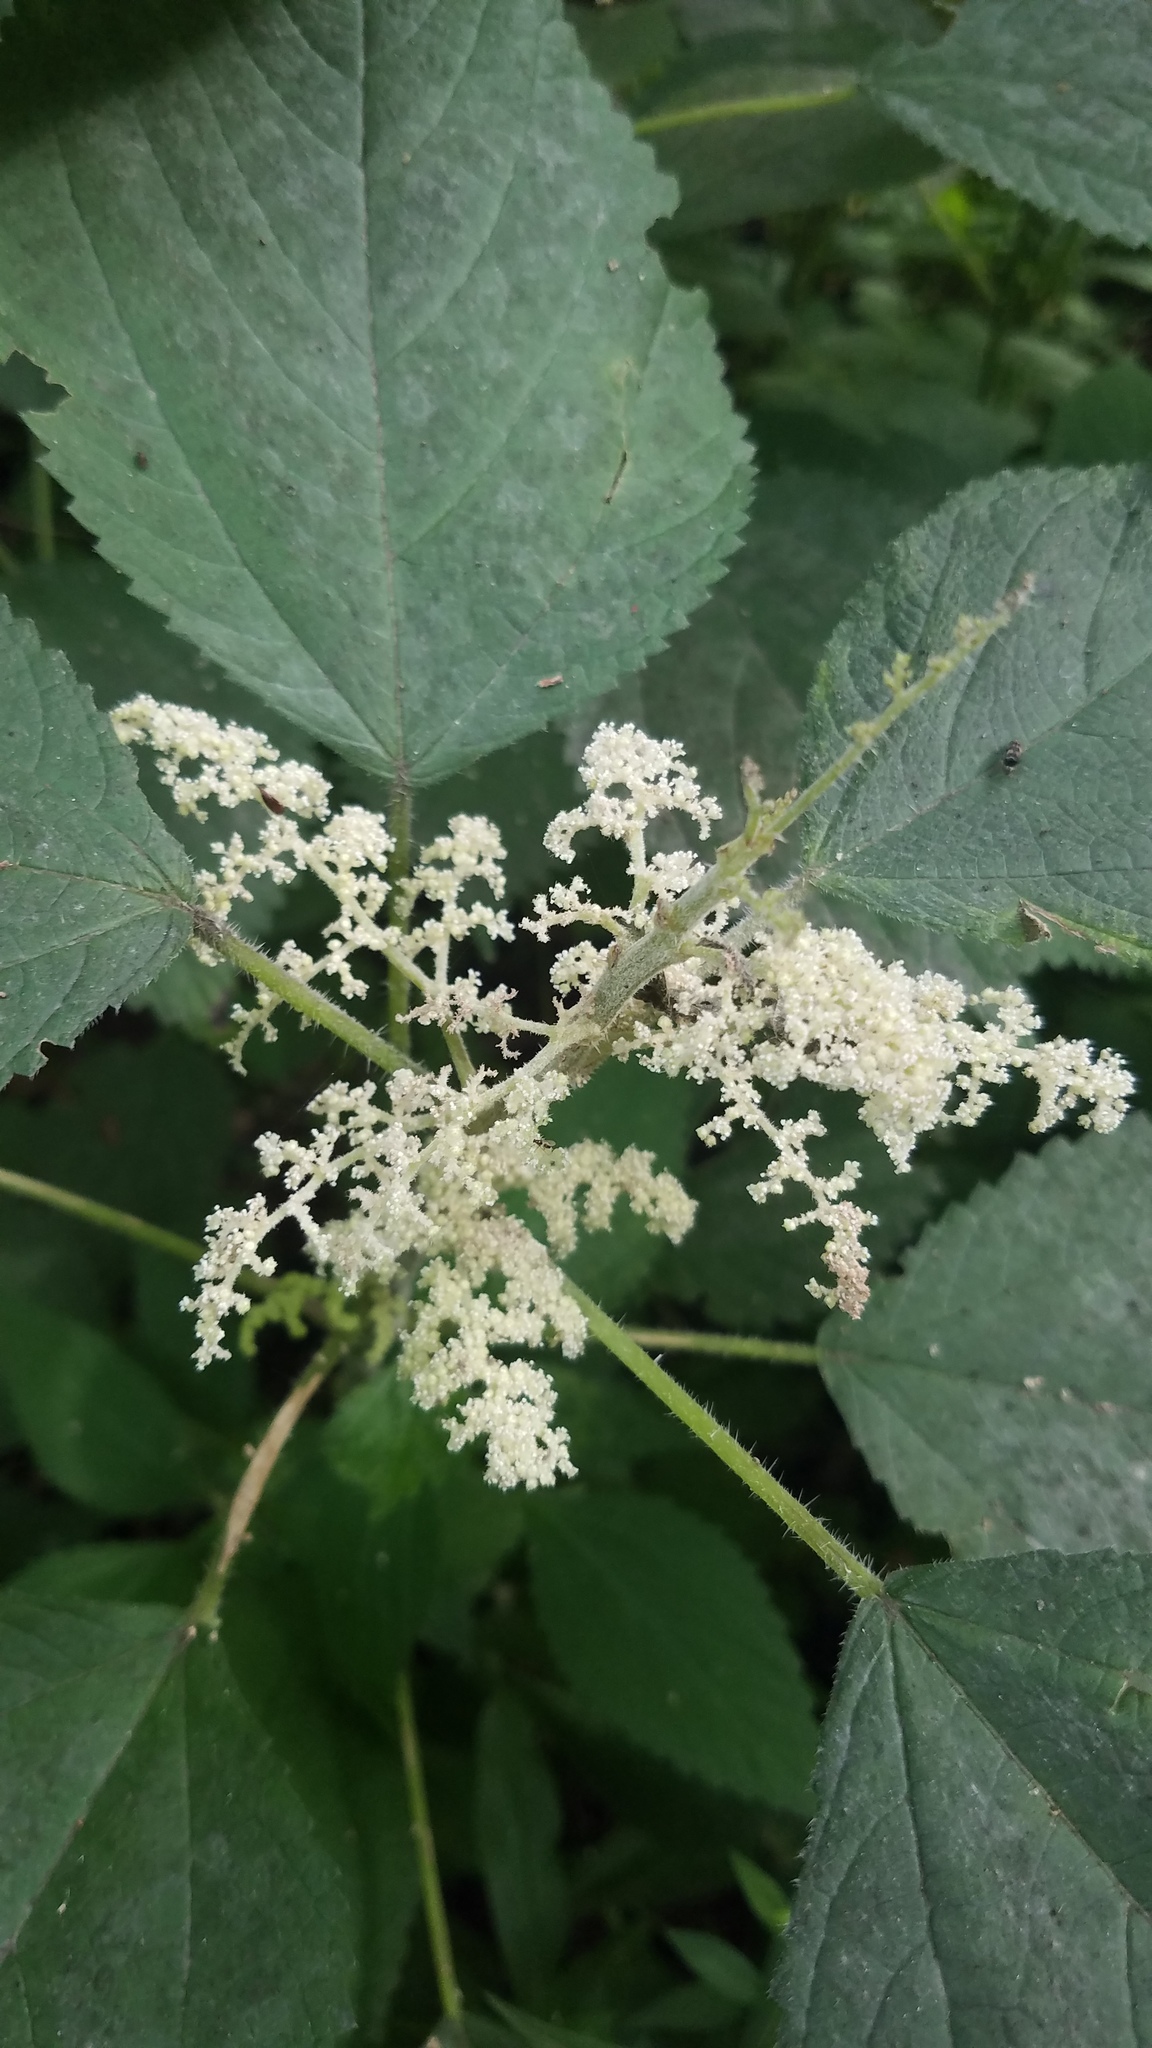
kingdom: Plantae
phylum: Tracheophyta
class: Magnoliopsida
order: Rosales
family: Urticaceae
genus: Laportea
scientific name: Laportea canadensis
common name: Canada nettle
